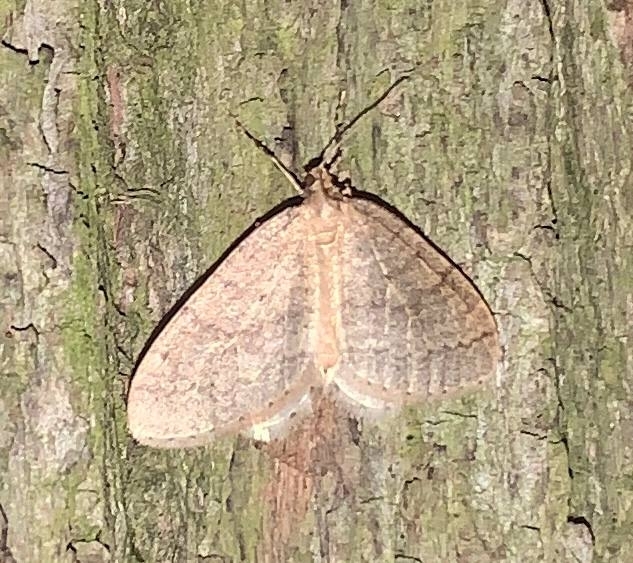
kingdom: Animalia
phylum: Arthropoda
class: Insecta
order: Lepidoptera
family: Geometridae
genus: Operophtera
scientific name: Operophtera brumata
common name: Winter moth
